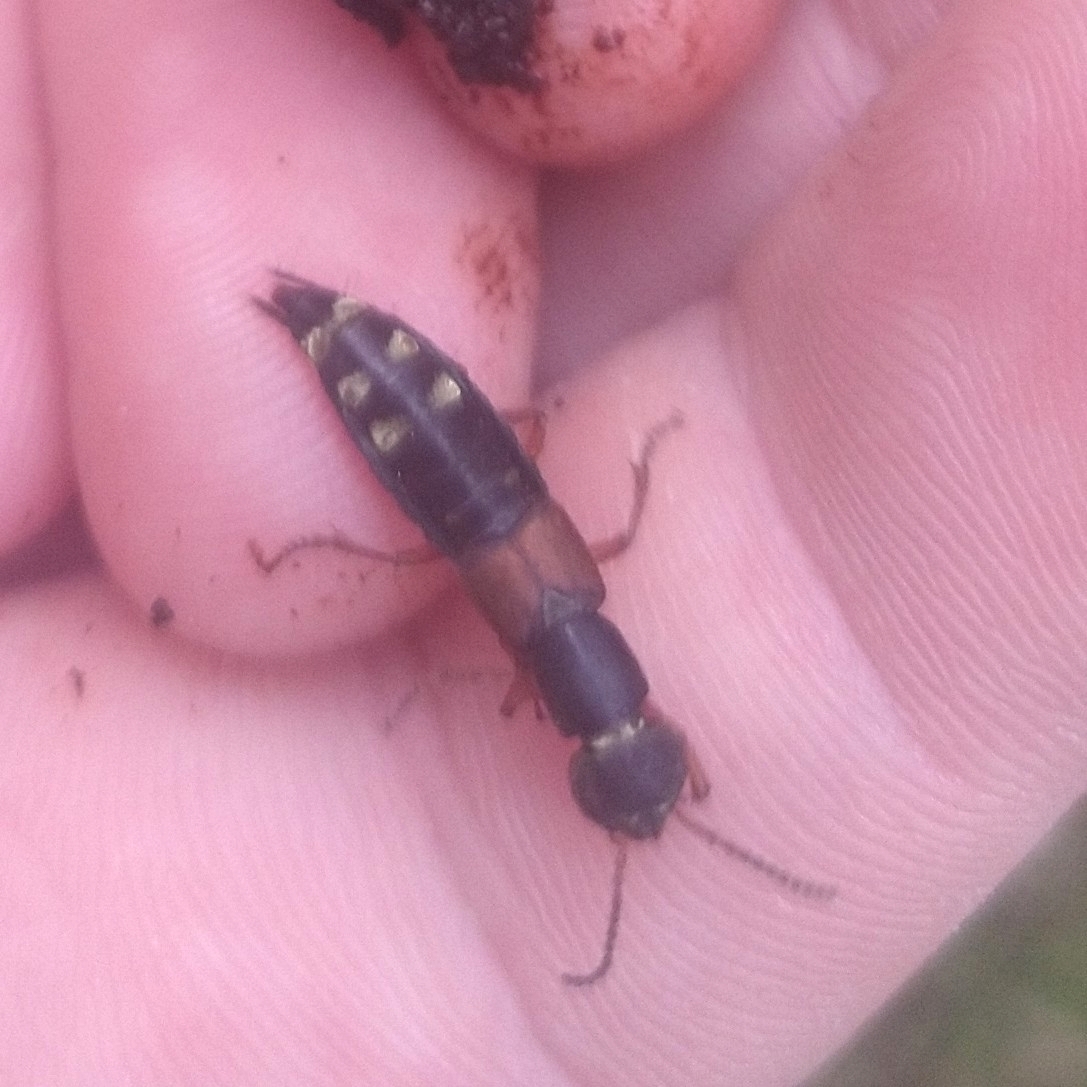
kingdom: Animalia
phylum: Arthropoda
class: Insecta
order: Coleoptera
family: Staphylinidae
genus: Staphylinus
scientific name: Staphylinus erythropterus
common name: Staph beetle
